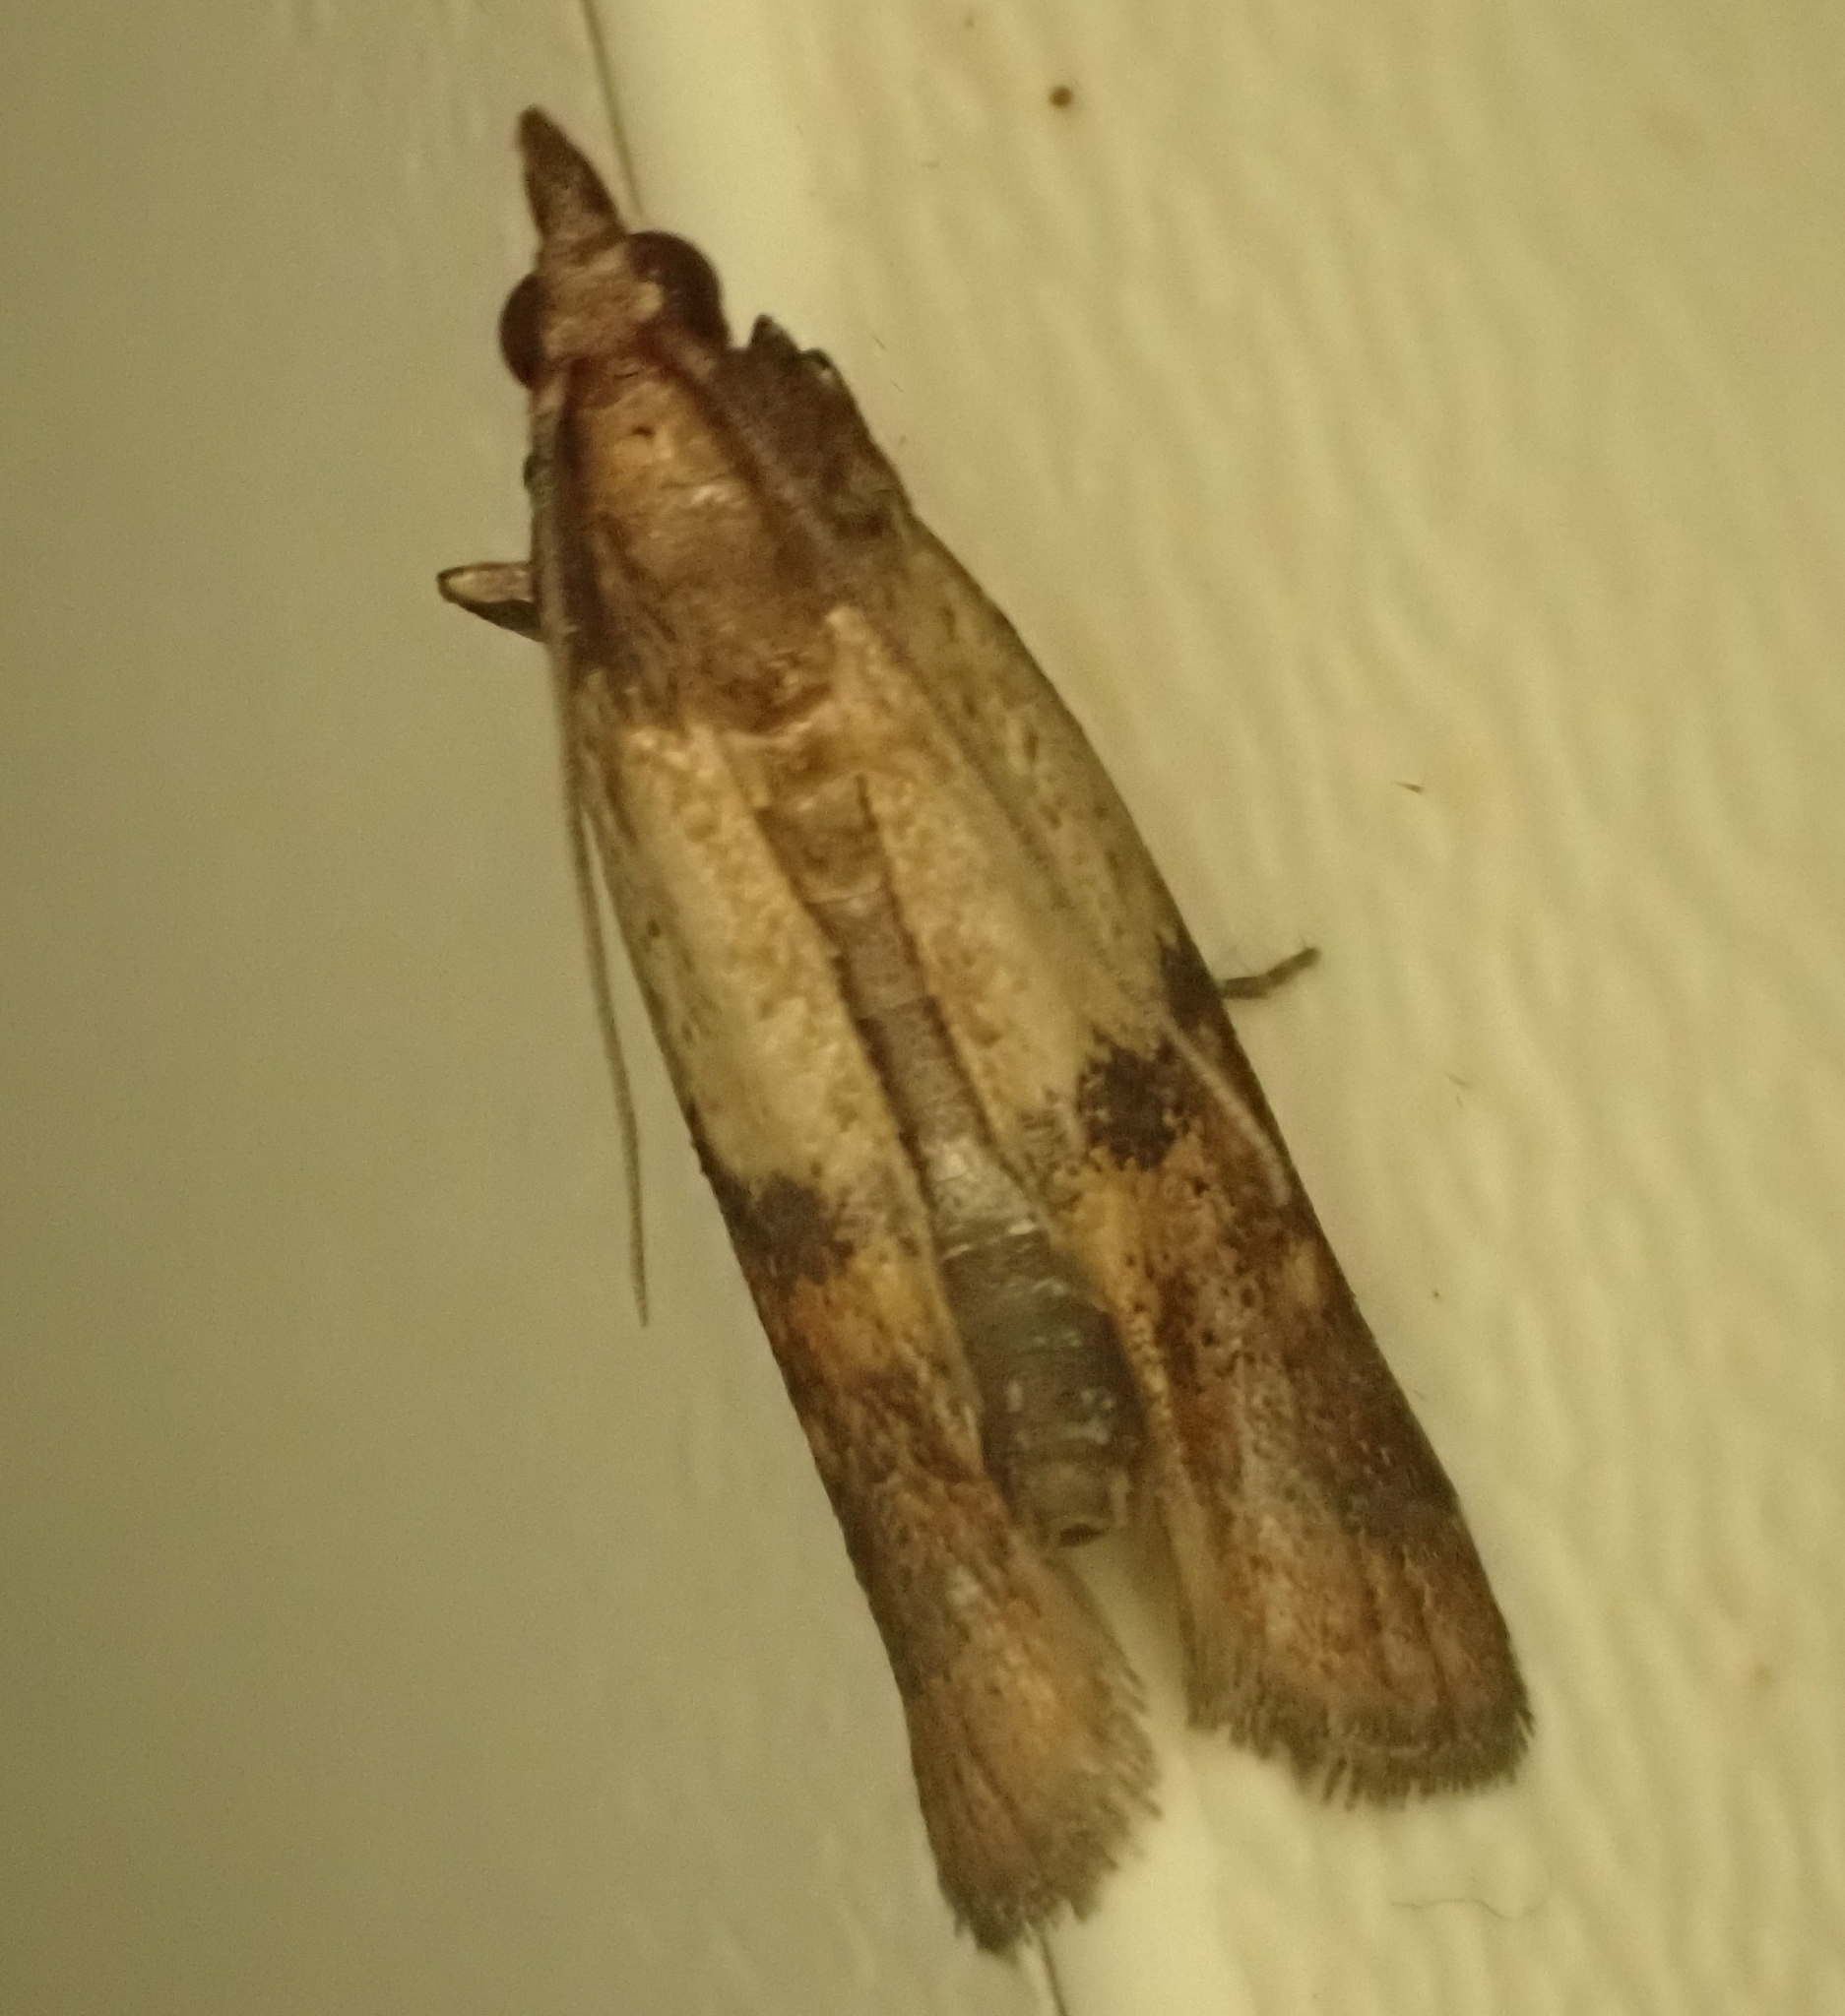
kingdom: Animalia
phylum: Arthropoda
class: Insecta
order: Lepidoptera
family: Pyralidae
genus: Plodia
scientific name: Plodia interpunctella
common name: Indian meal moth
